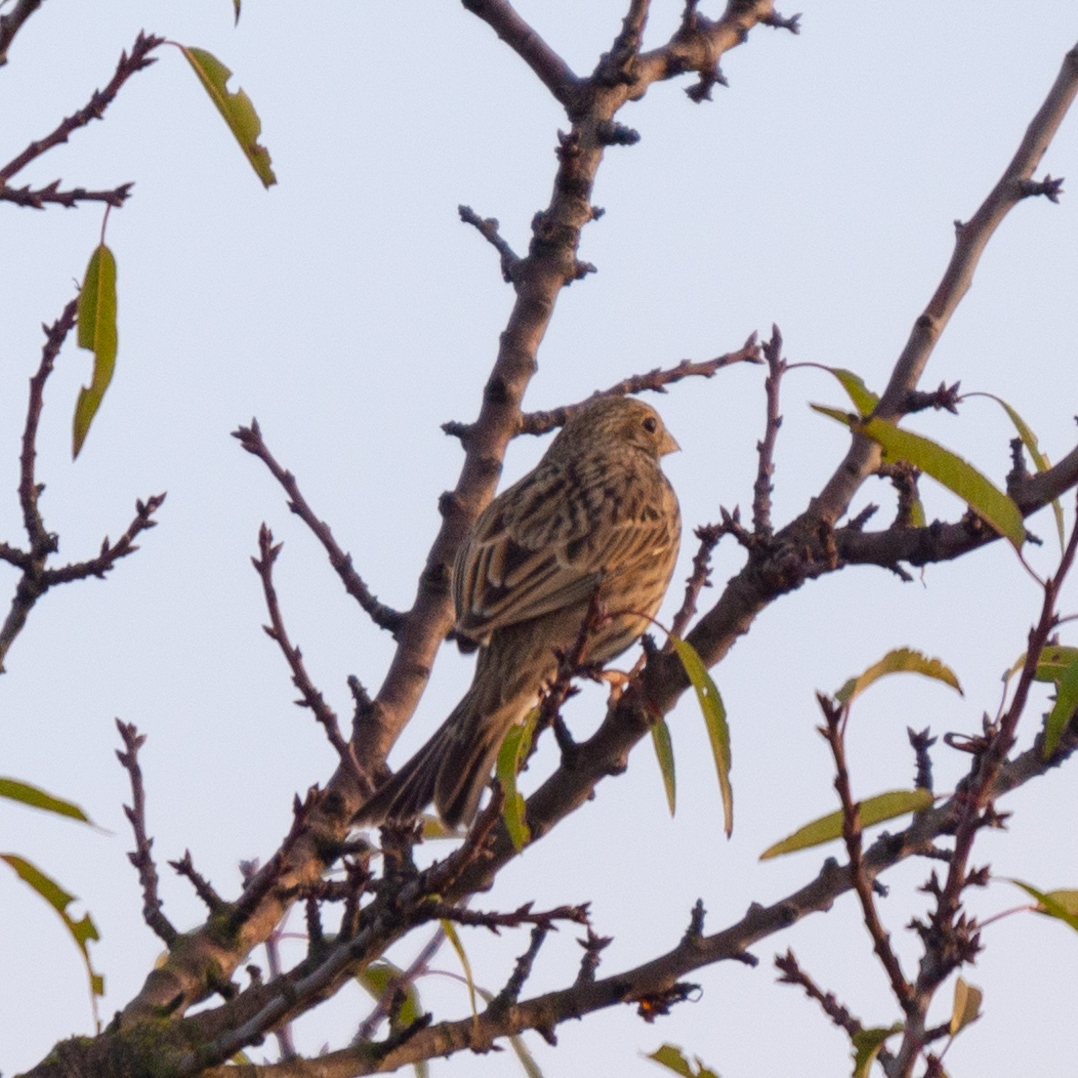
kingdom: Animalia
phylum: Chordata
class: Aves
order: Passeriformes
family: Emberizidae
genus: Emberiza
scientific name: Emberiza calandra
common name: Corn bunting
